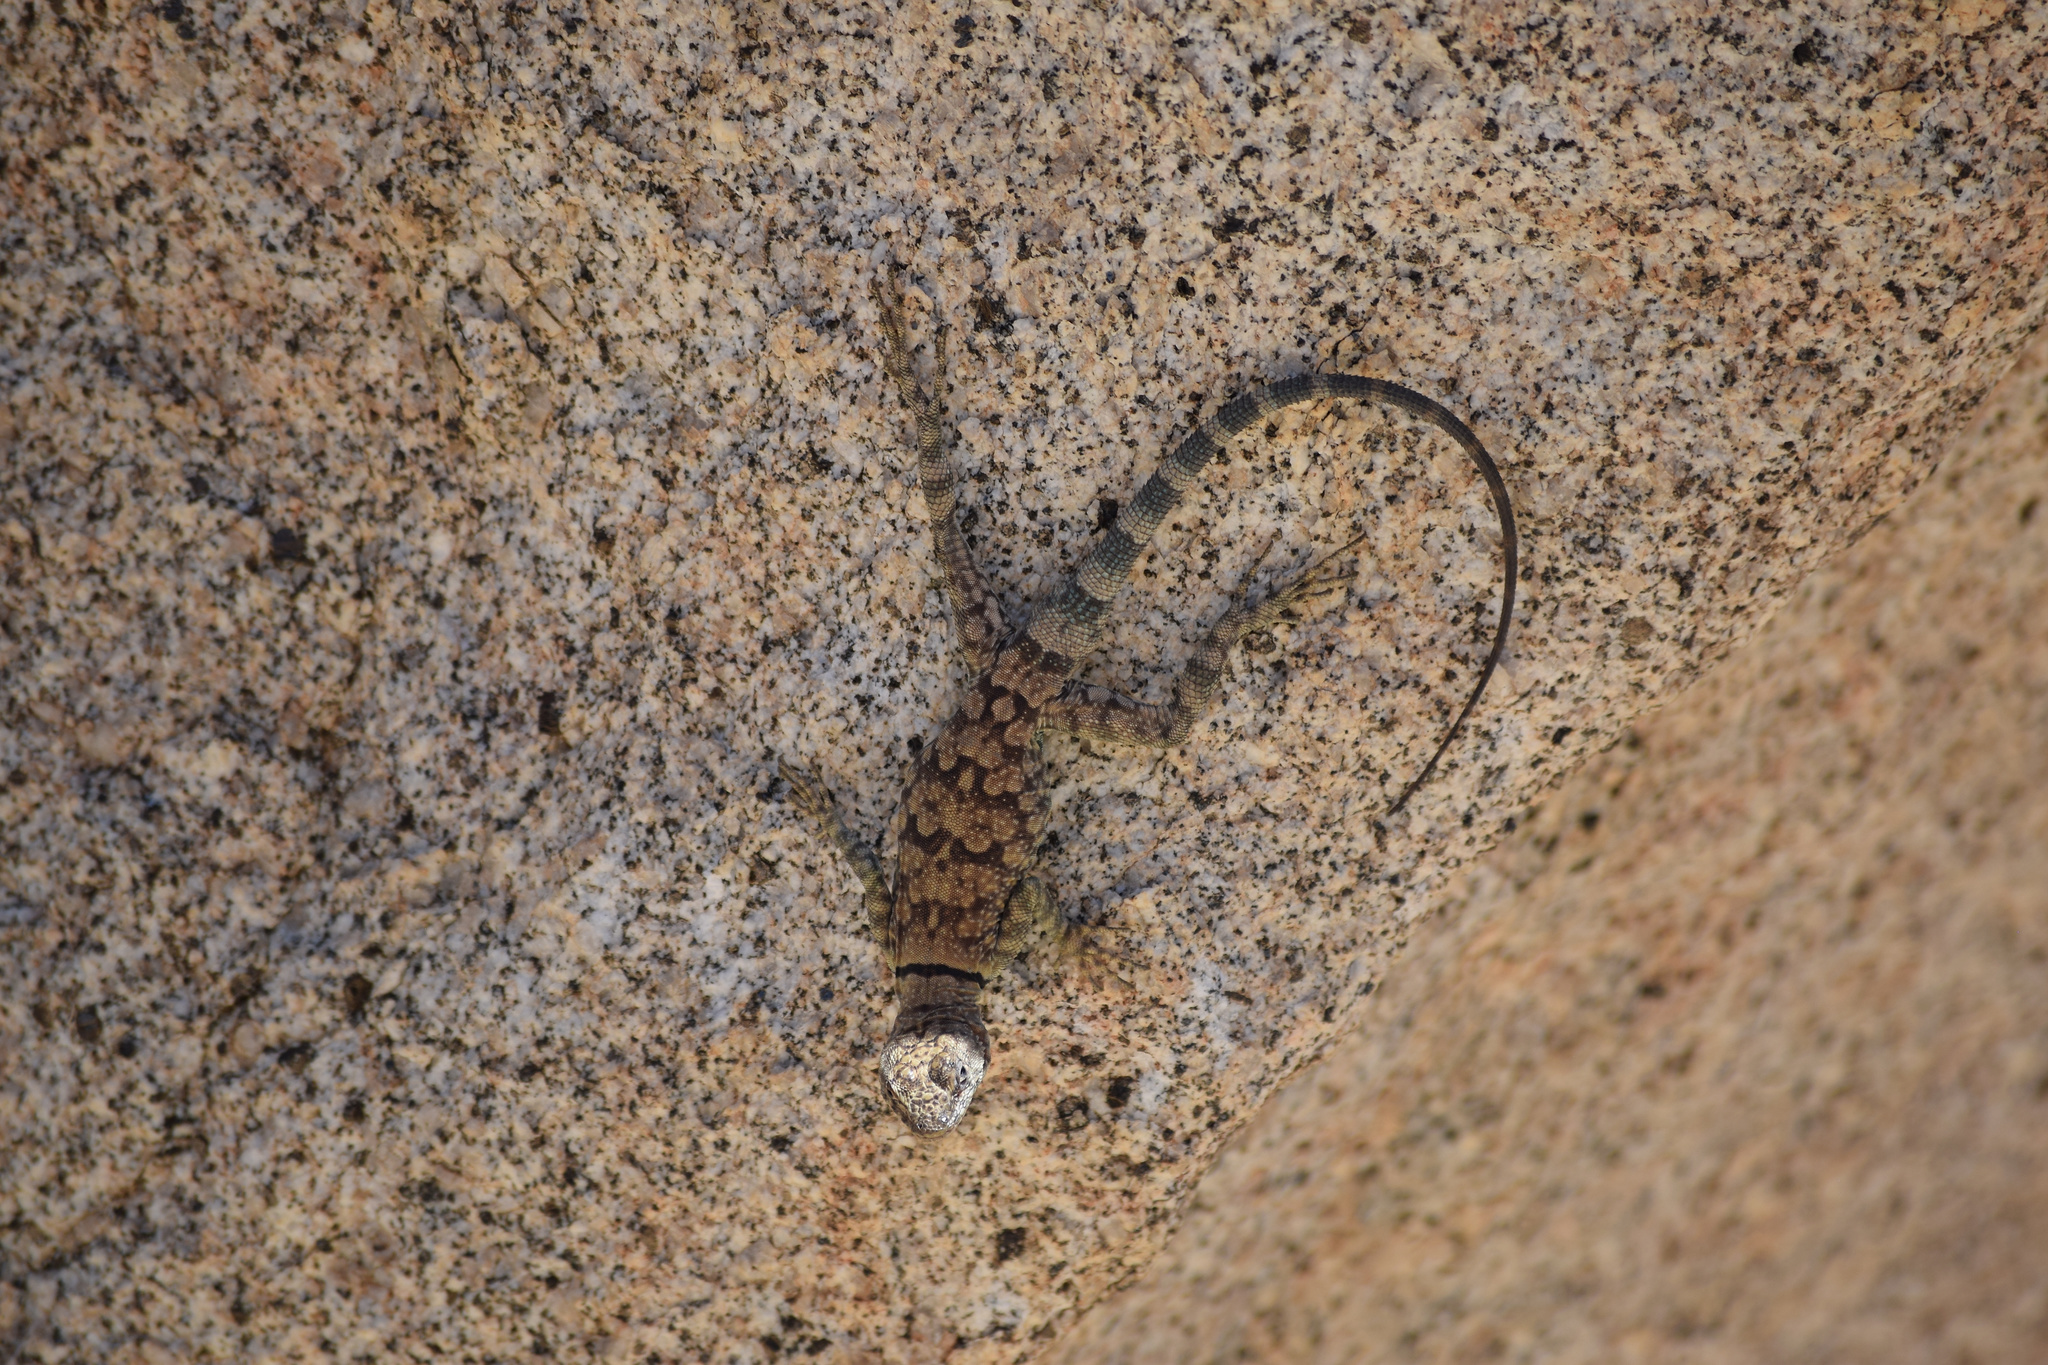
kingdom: Animalia
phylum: Chordata
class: Squamata
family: Phrynosomatidae
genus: Petrosaurus
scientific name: Petrosaurus mearnsi
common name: Banded rock lizard
